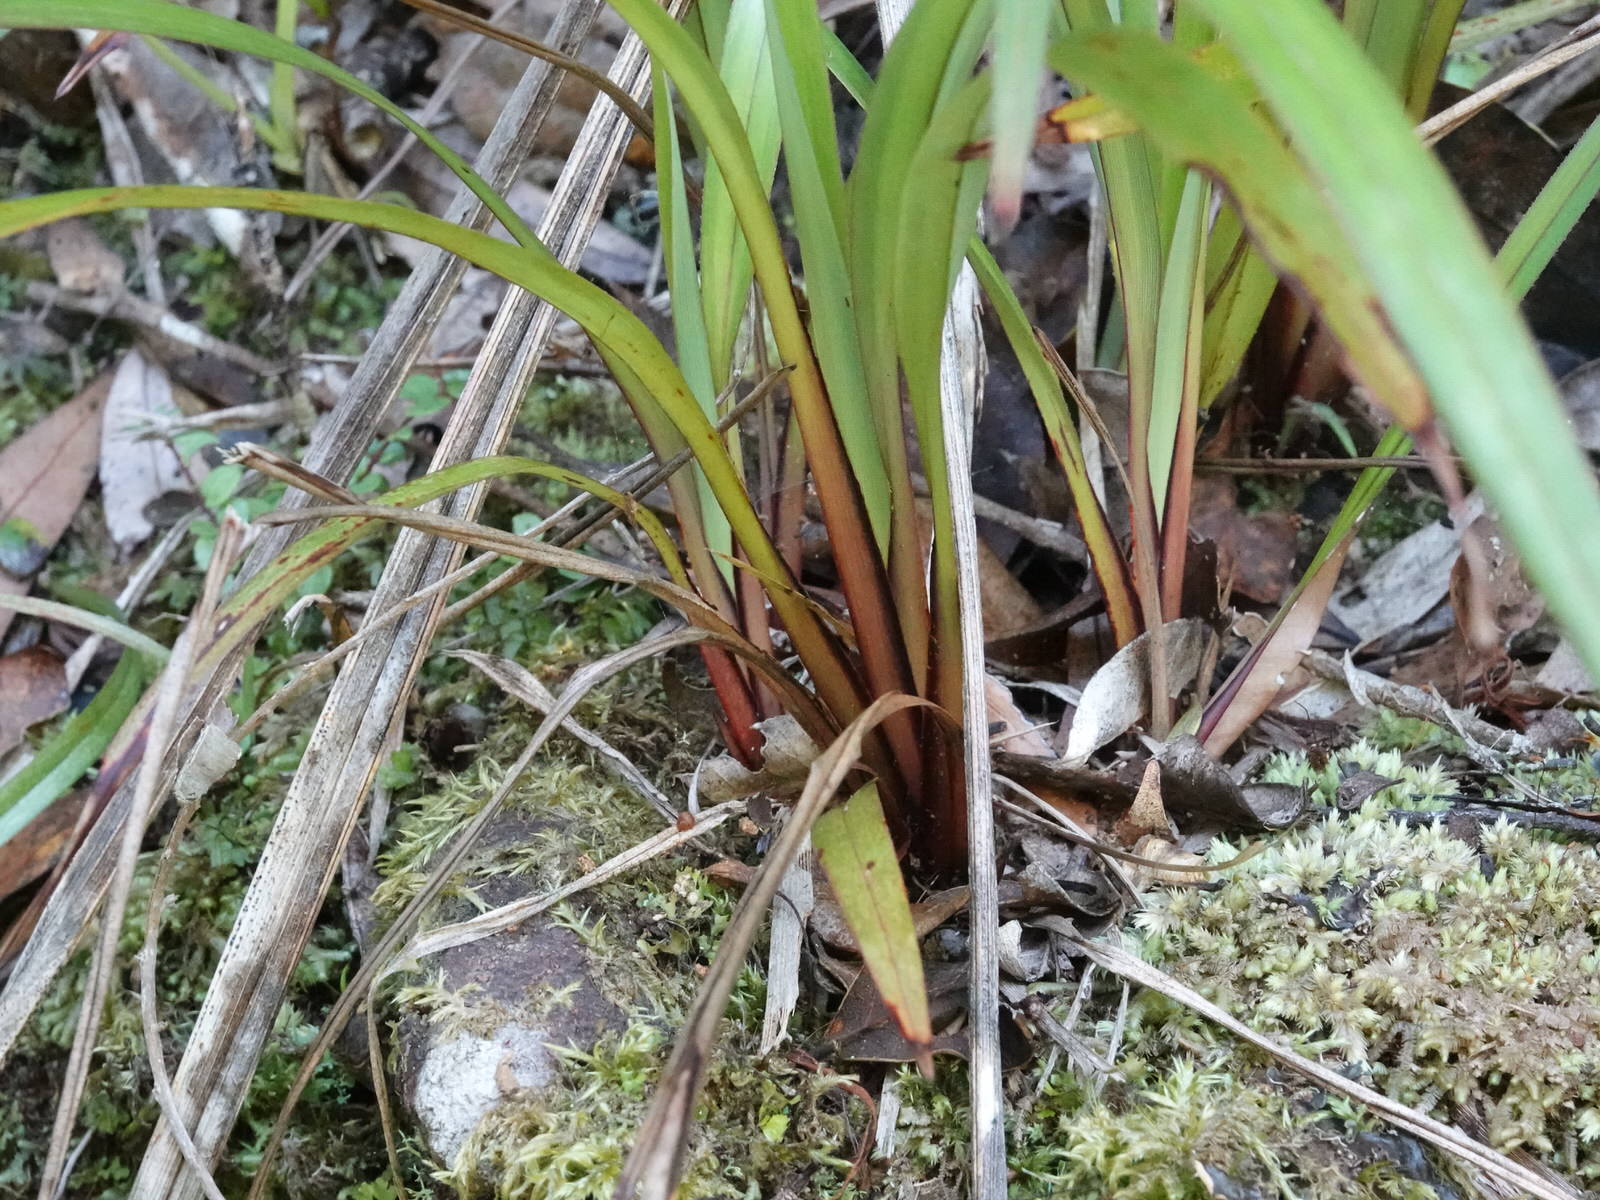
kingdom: Plantae
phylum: Tracheophyta
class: Liliopsida
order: Asparagales
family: Asphodelaceae
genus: Dianella
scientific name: Dianella nigra
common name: New zealand-blueberry
